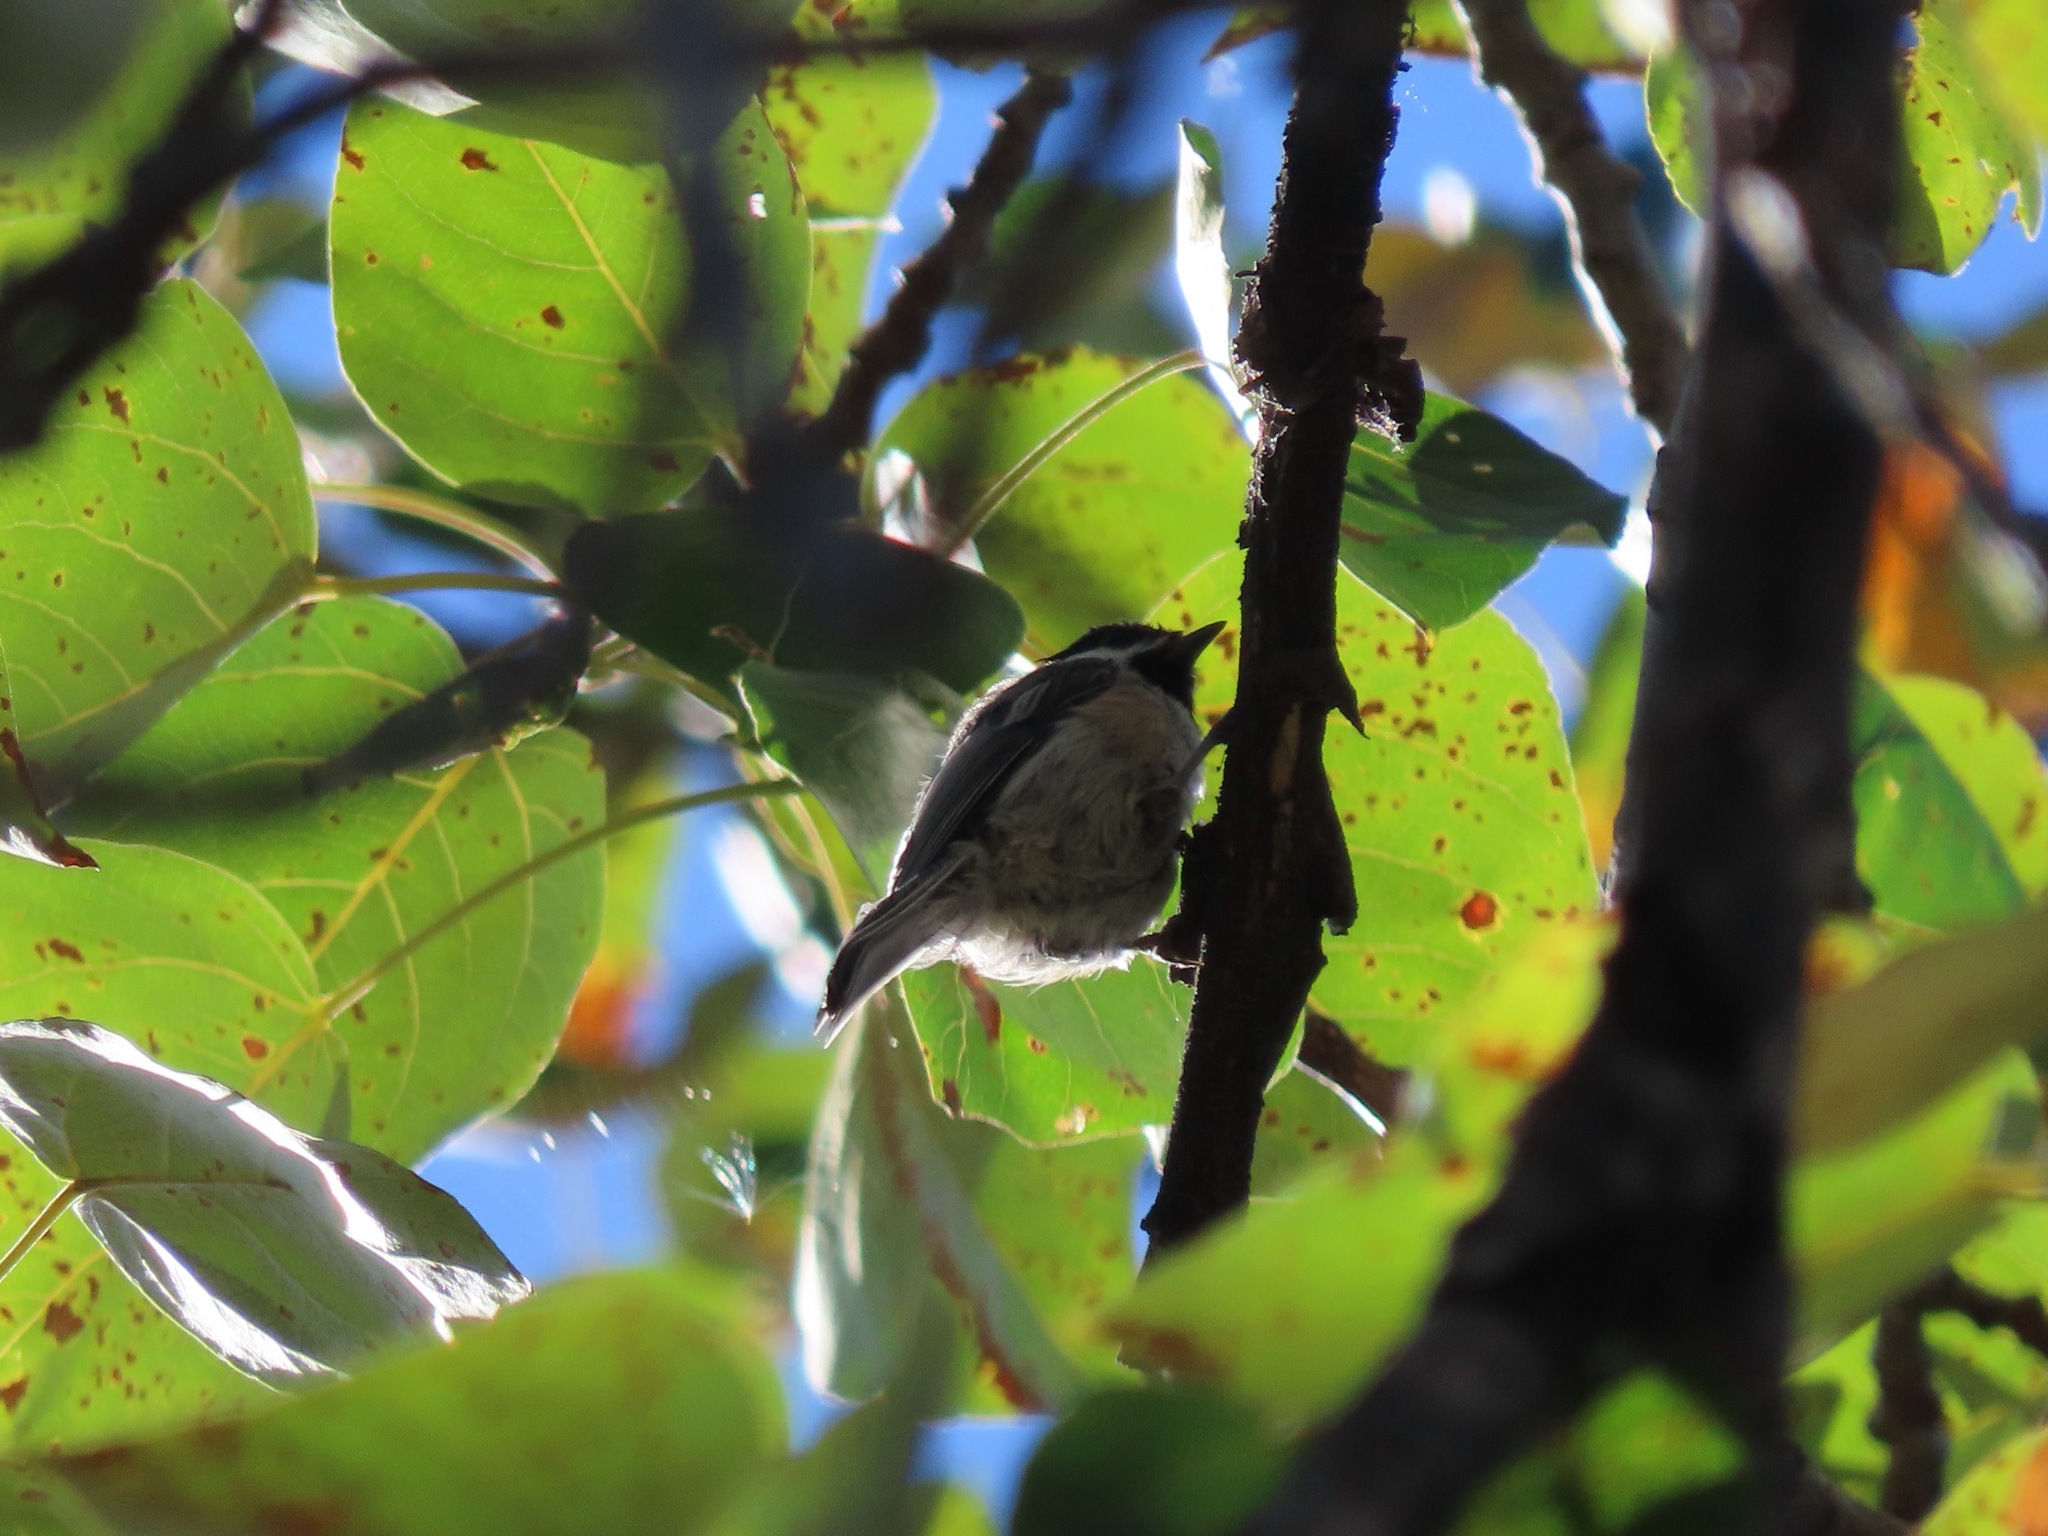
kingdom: Animalia
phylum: Chordata
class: Aves
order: Passeriformes
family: Paridae
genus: Poecile
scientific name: Poecile atricapillus
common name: Black-capped chickadee
